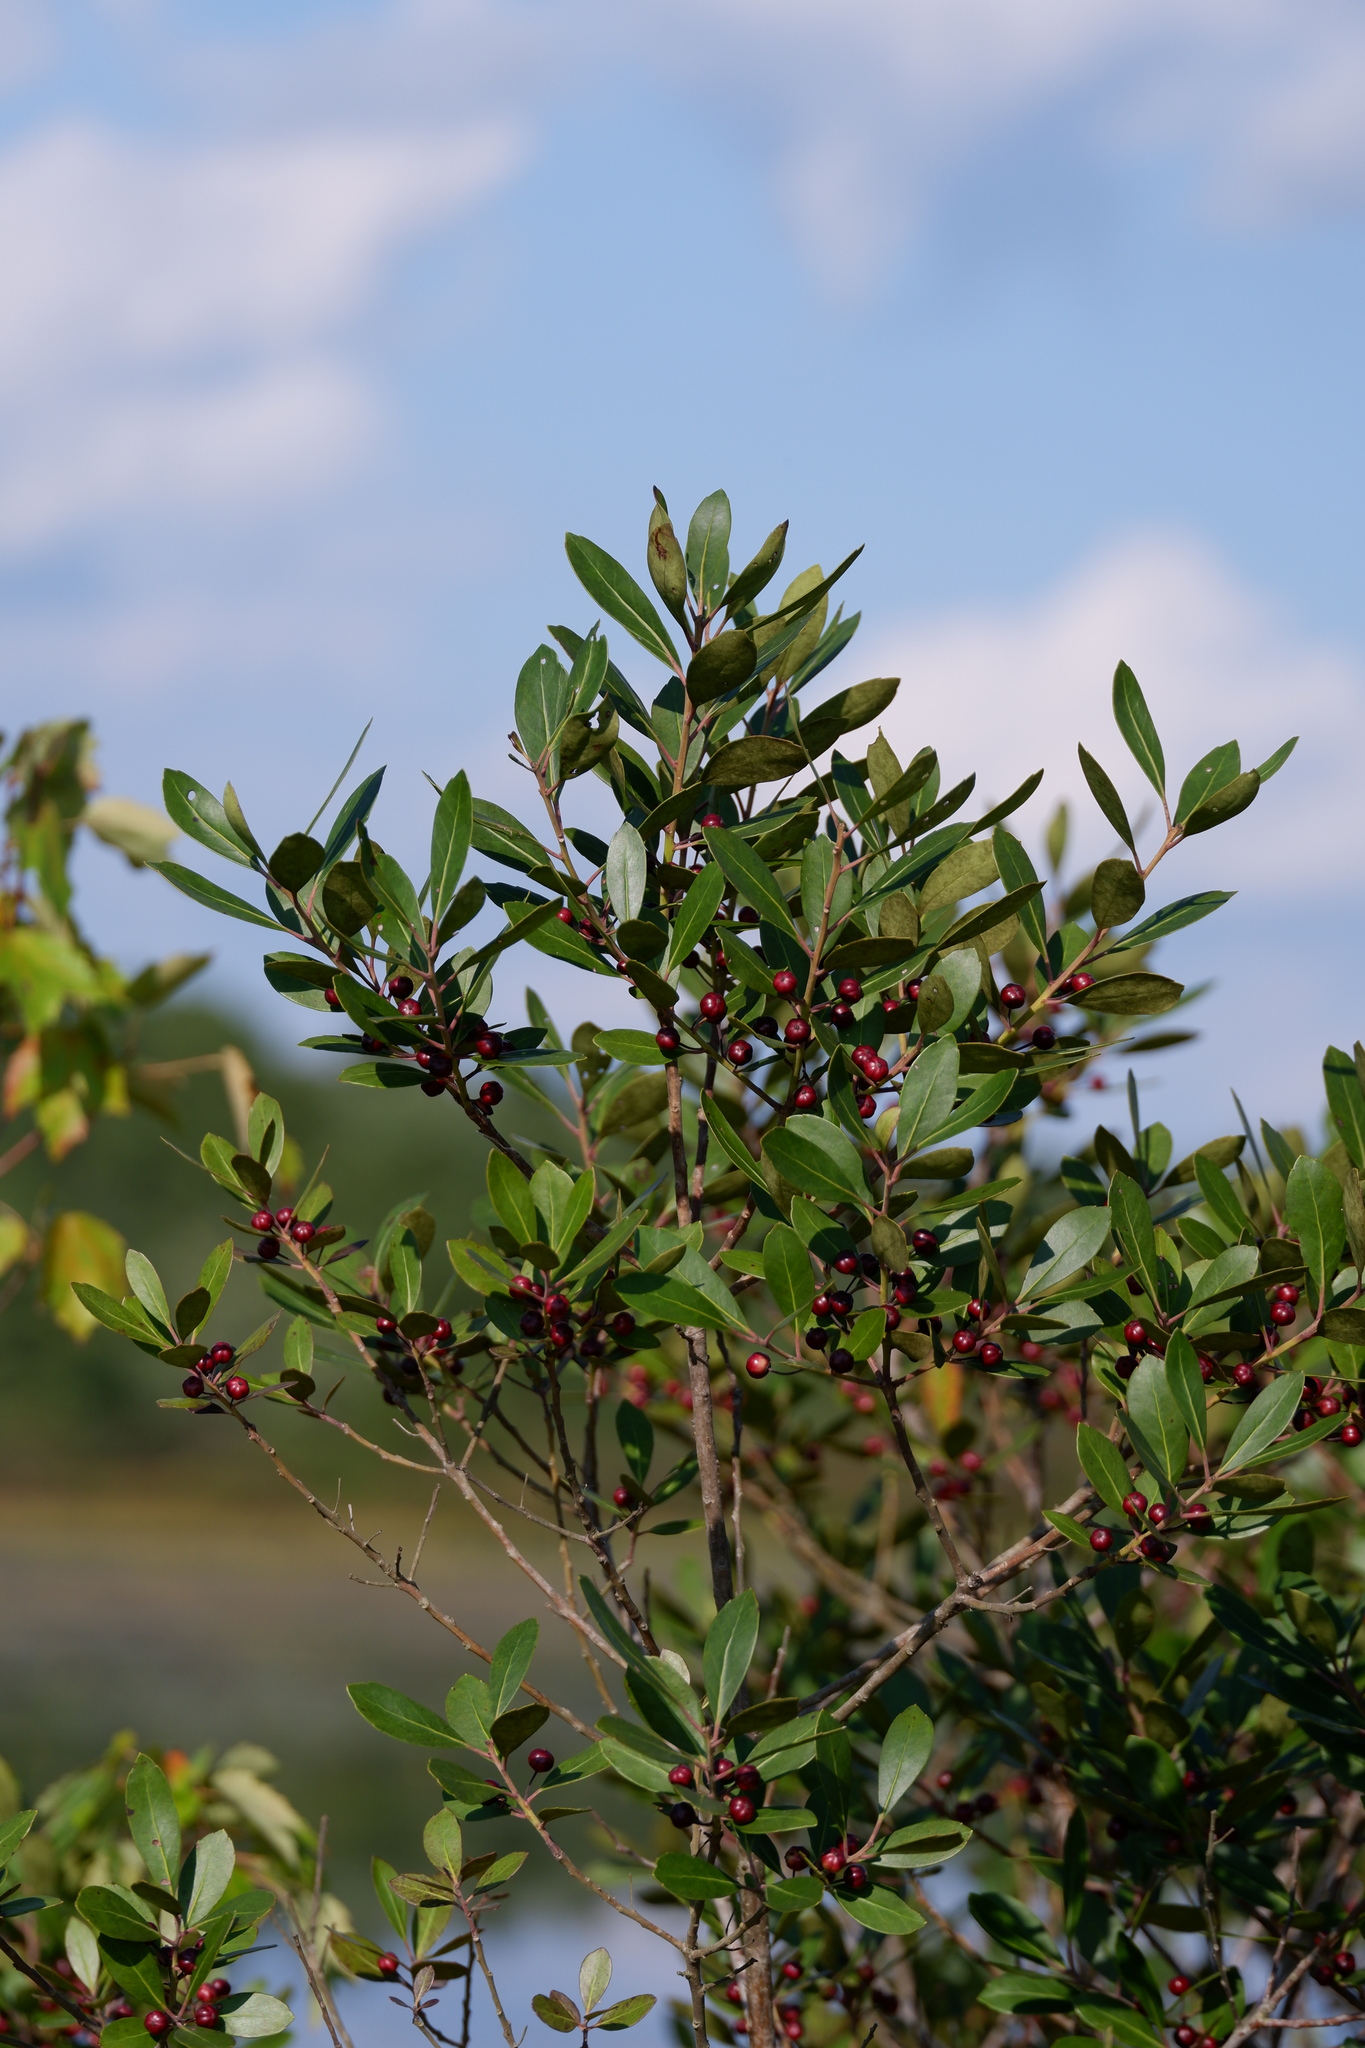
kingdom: Plantae
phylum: Tracheophyta
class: Magnoliopsida
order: Aquifoliales
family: Aquifoliaceae
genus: Ilex
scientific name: Ilex glabra
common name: Bitter gallberry
